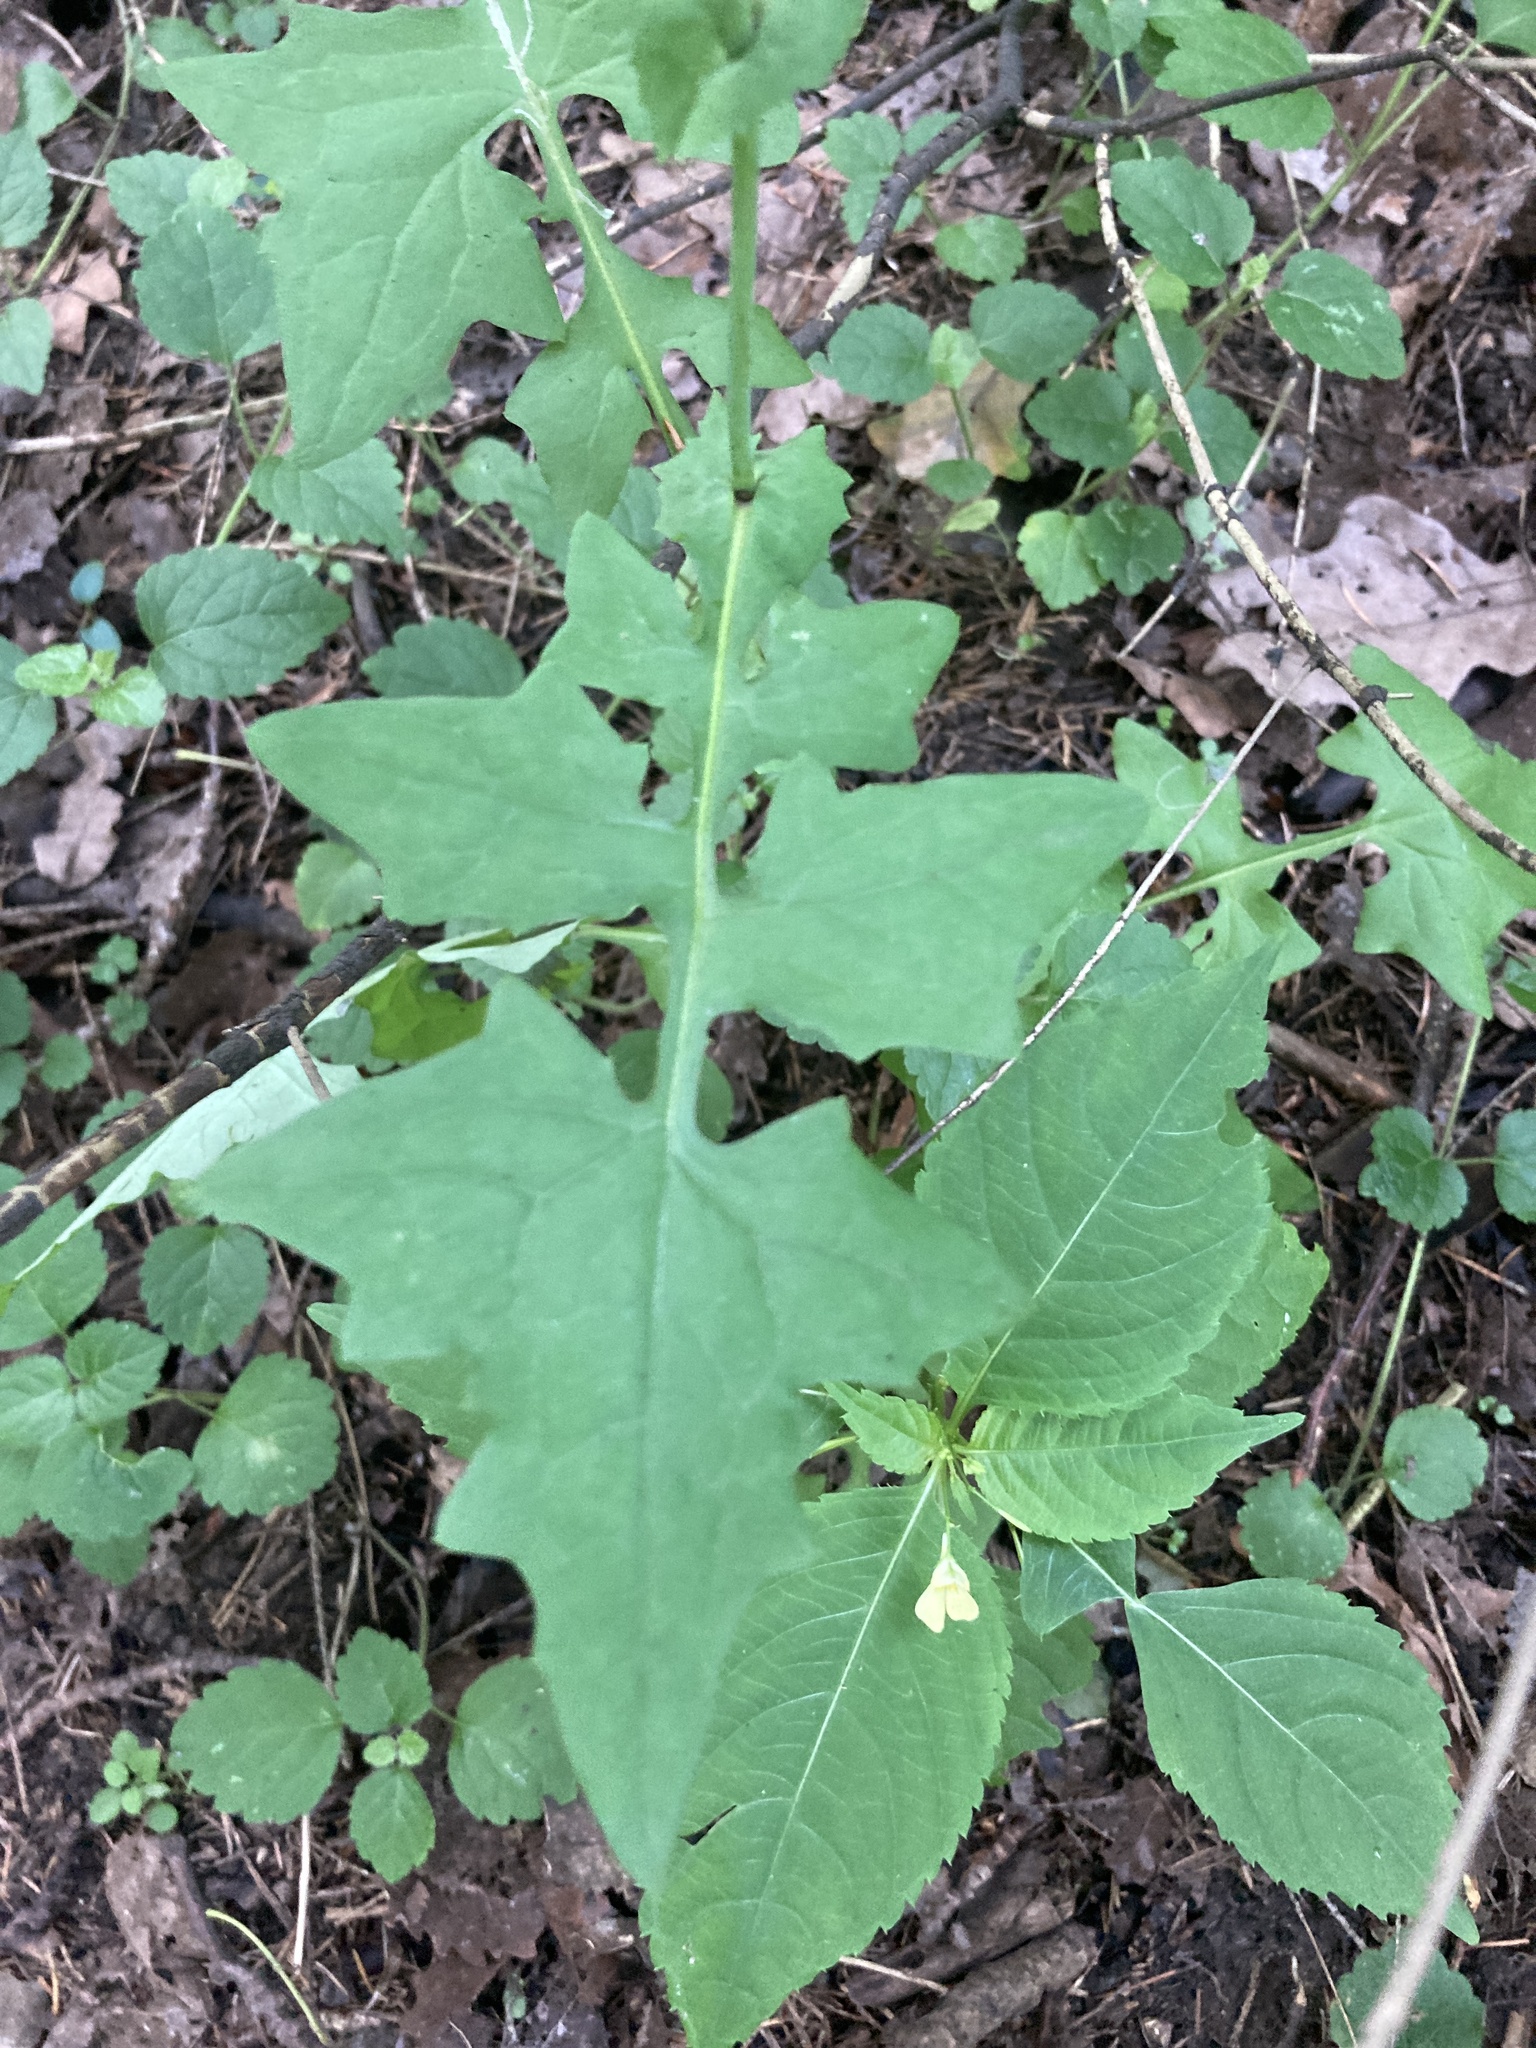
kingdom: Plantae
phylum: Tracheophyta
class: Magnoliopsida
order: Asterales
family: Asteraceae
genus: Mycelis
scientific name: Mycelis muralis
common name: Wall lettuce
